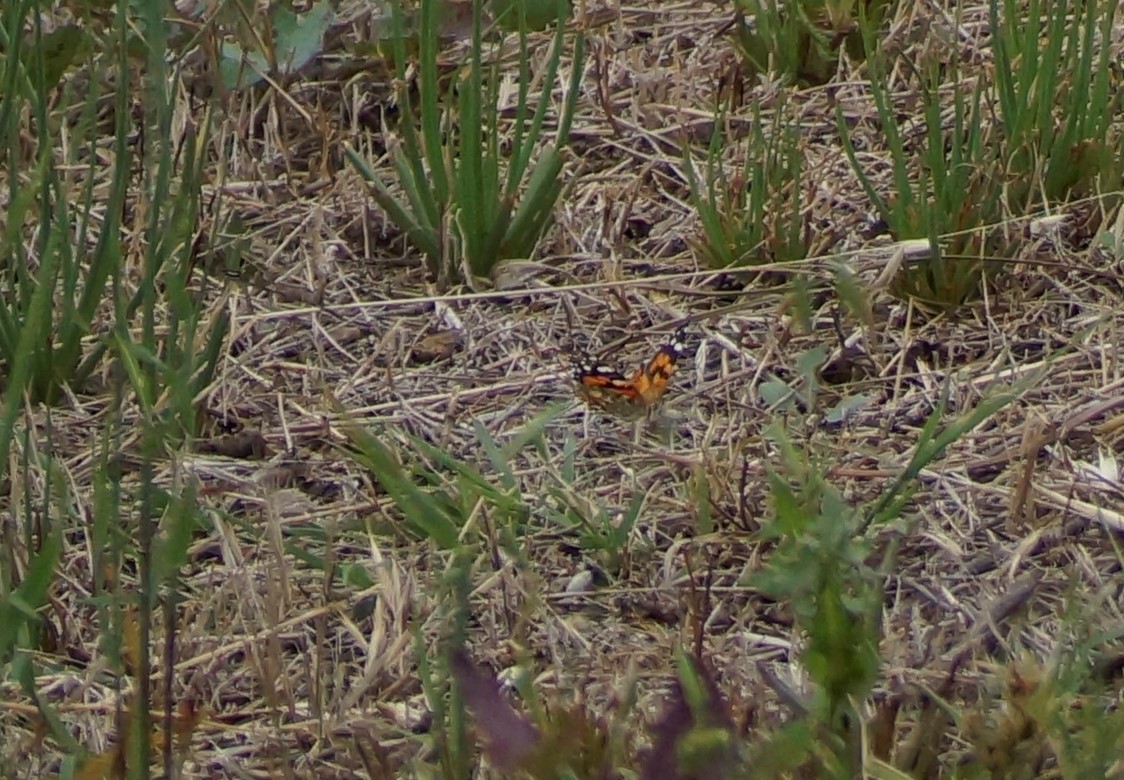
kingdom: Animalia
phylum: Arthropoda
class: Insecta
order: Lepidoptera
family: Nymphalidae
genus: Vanessa
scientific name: Vanessa kershawi
